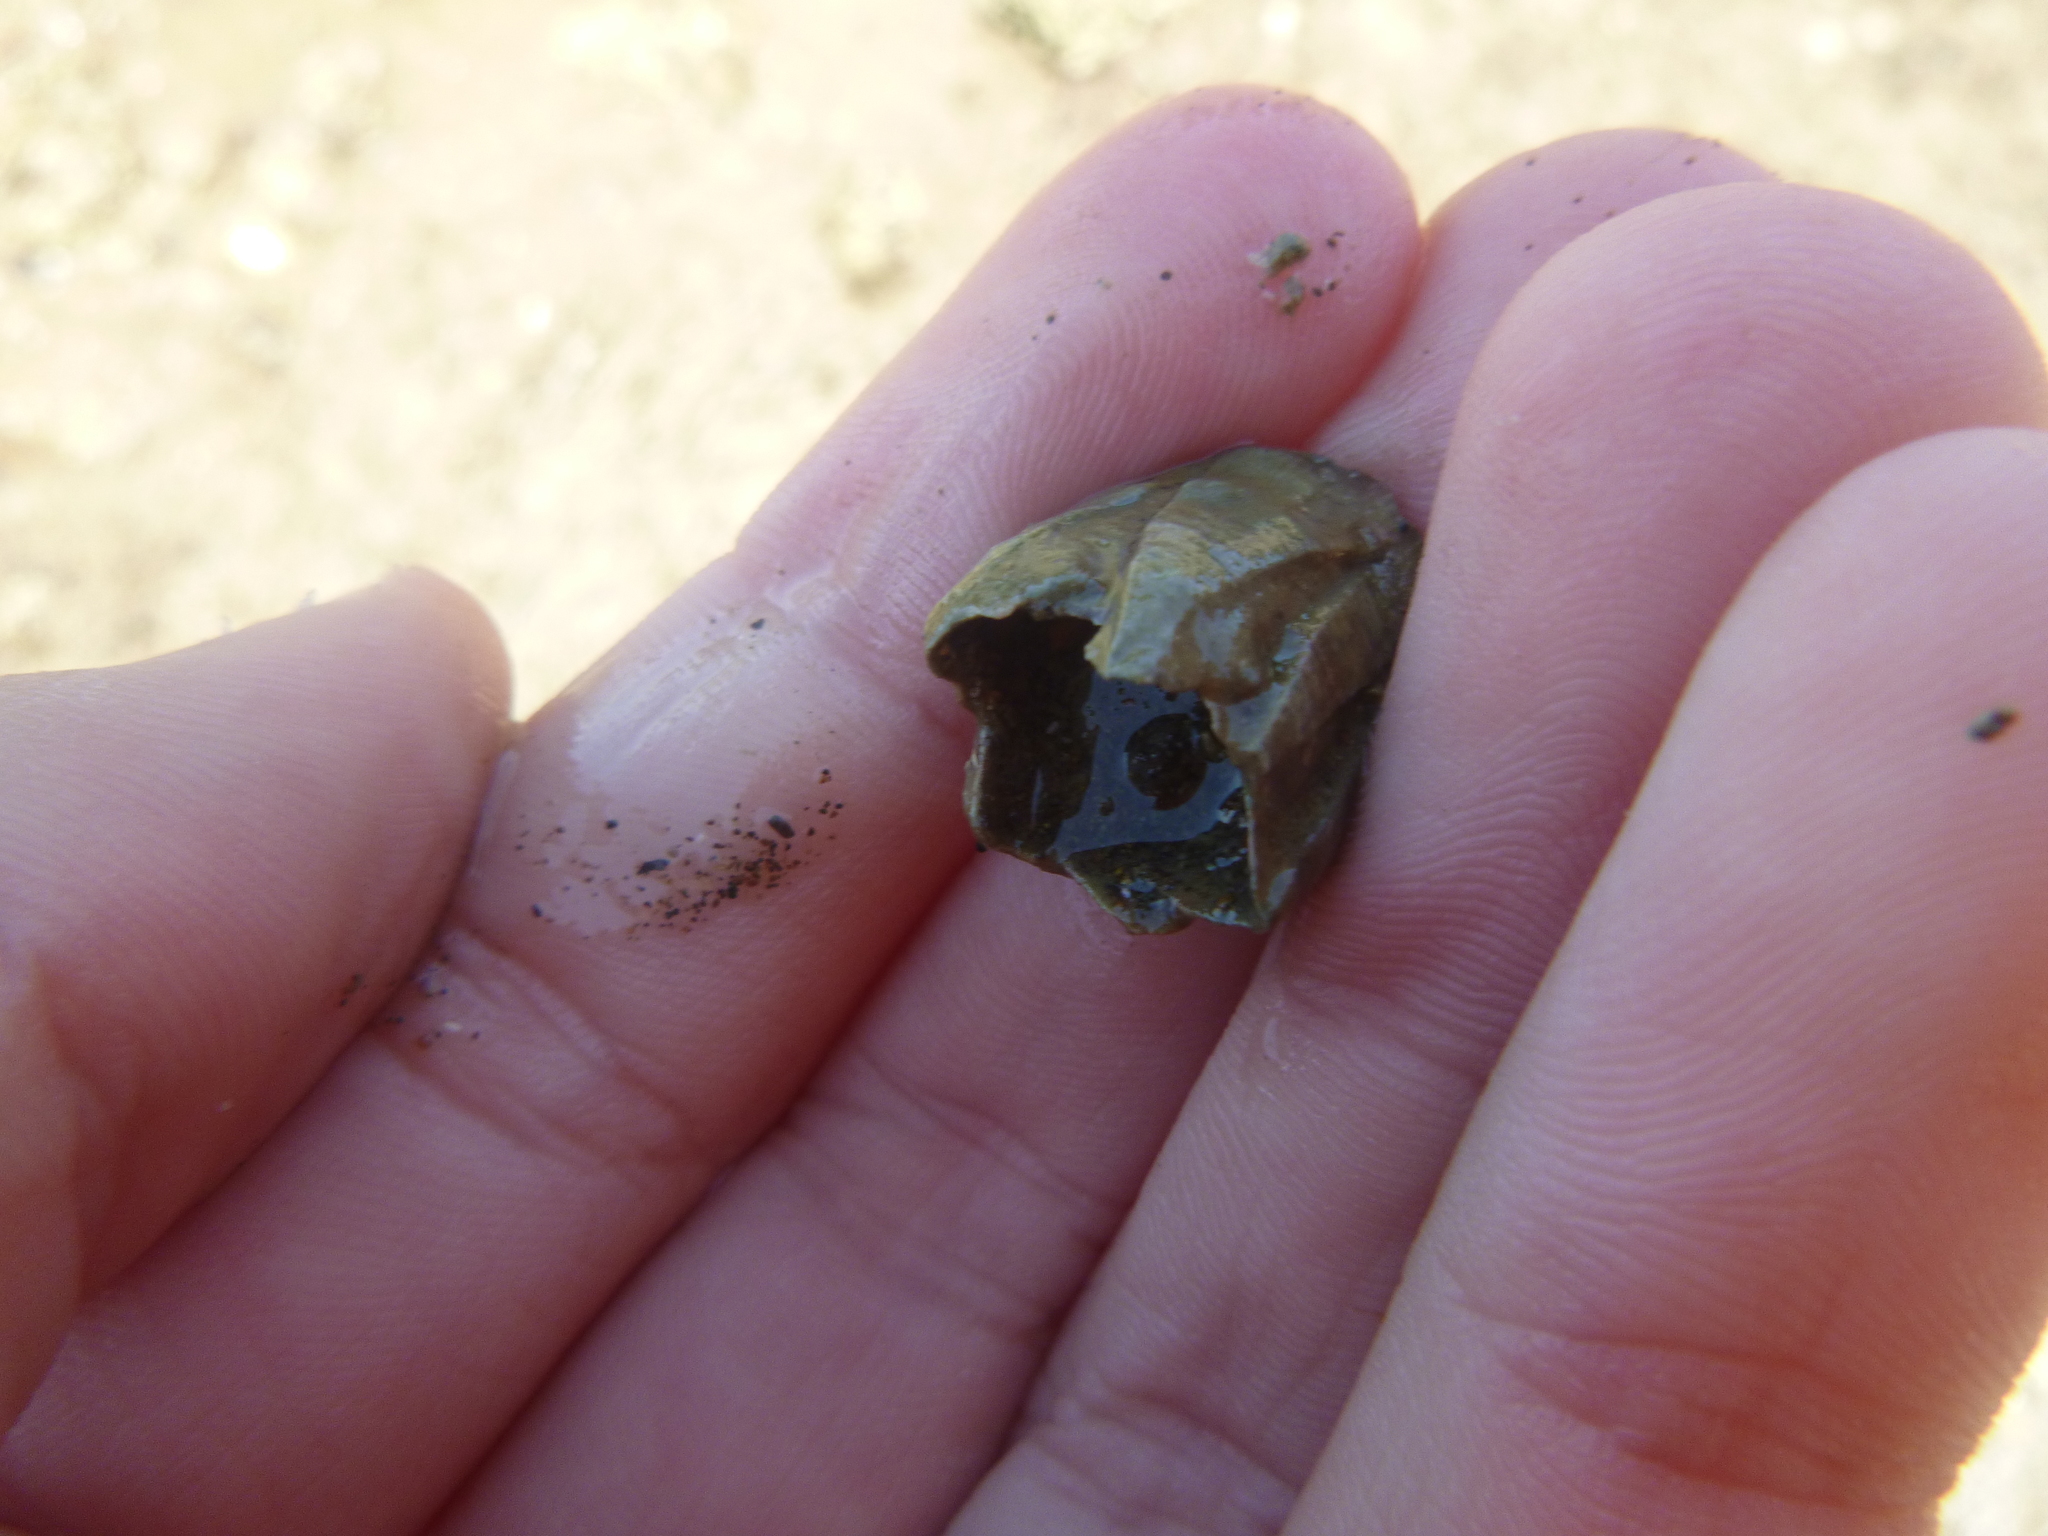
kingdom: Animalia
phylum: Arthropoda
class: Maxillopoda
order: Sessilia
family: Balanidae
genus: Fistulobalanus
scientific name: Fistulobalanus kondakovi
